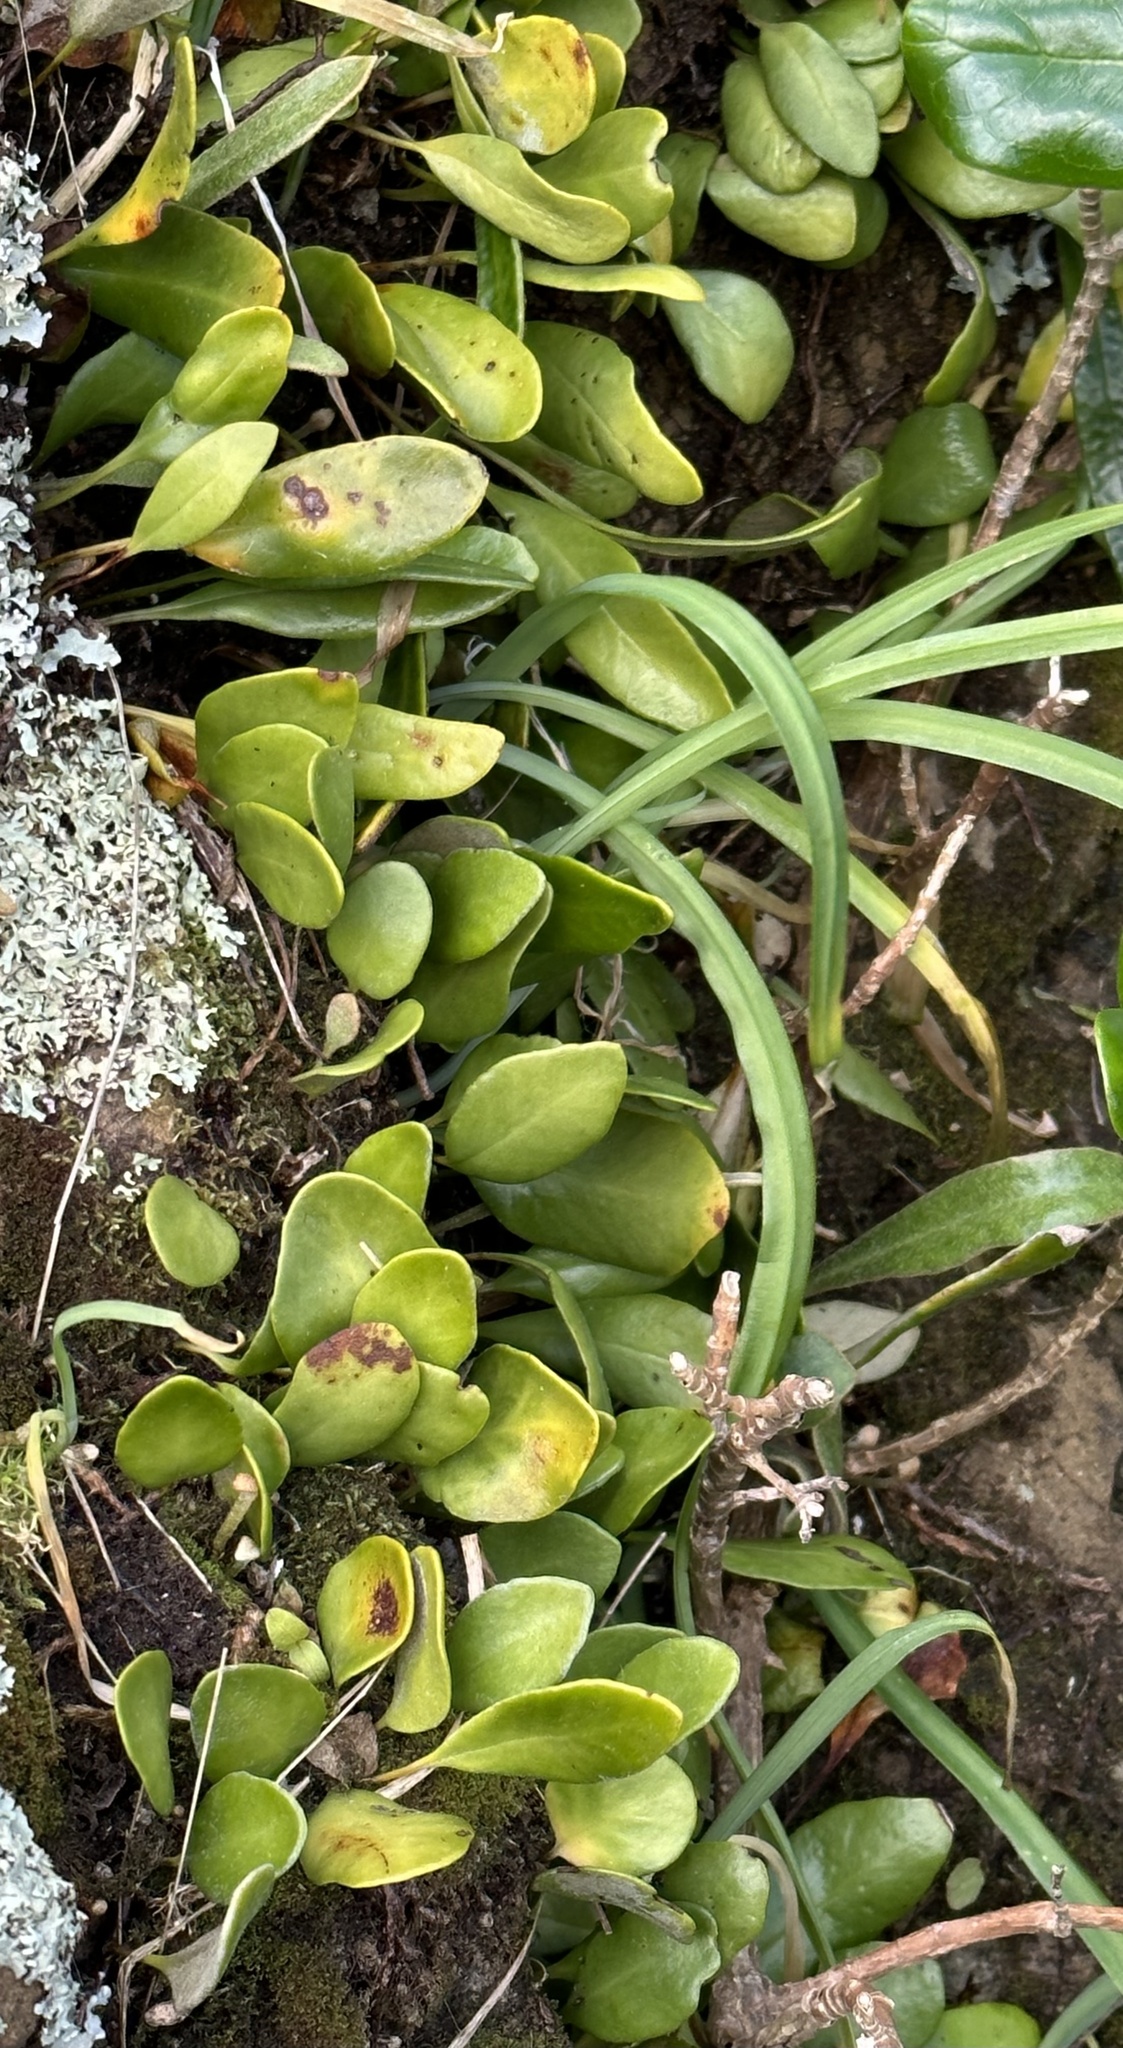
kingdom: Plantae
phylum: Tracheophyta
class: Polypodiopsida
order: Polypodiales
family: Polypodiaceae
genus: Pyrrosia
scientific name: Pyrrosia eleagnifolia
